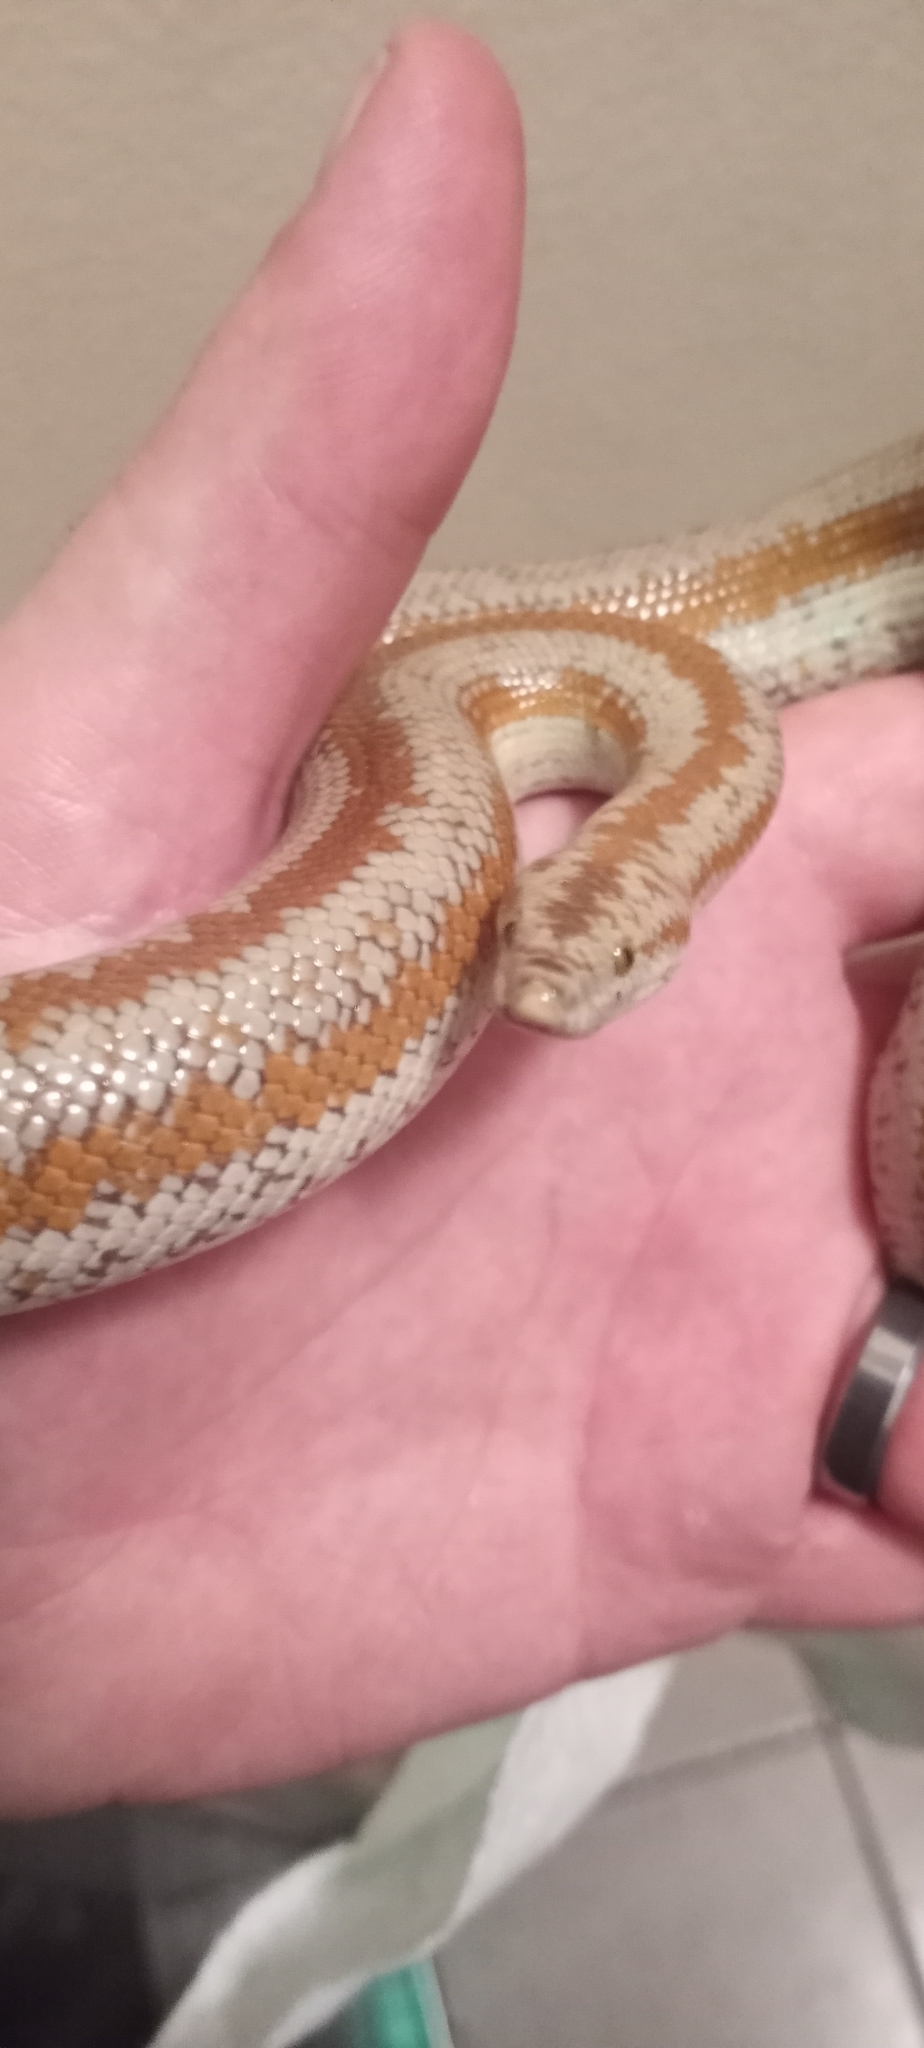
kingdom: Animalia
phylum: Chordata
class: Squamata
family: Boidae
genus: Lichanura
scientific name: Lichanura orcutti
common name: Northern three-lined boa
